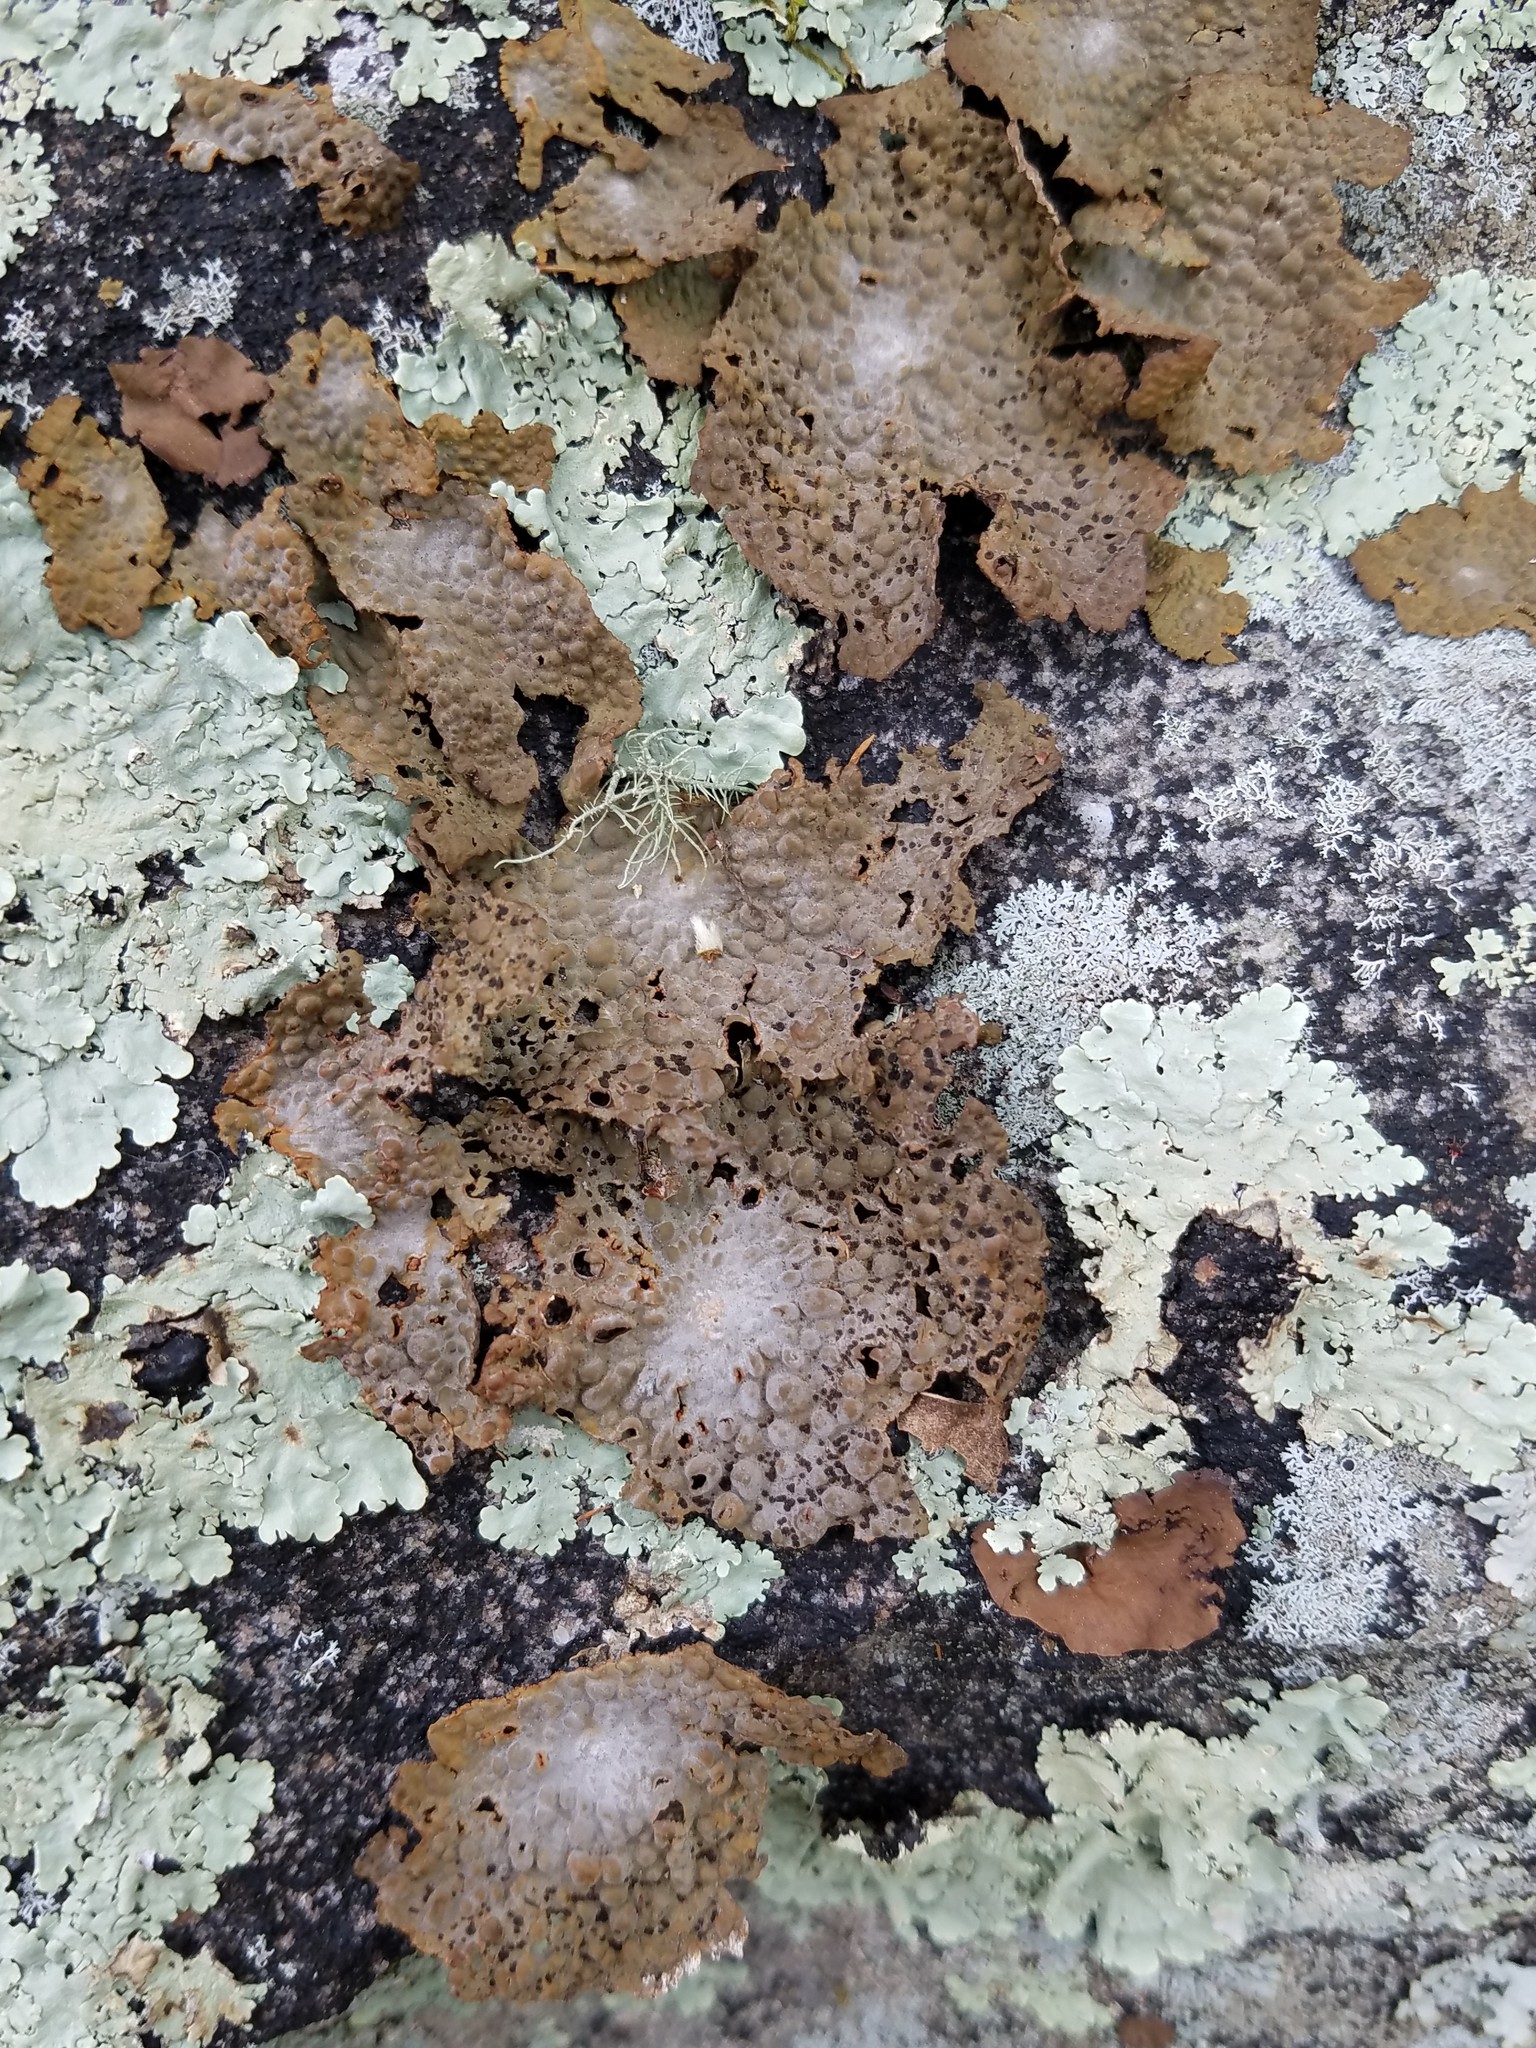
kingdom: Fungi
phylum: Ascomycota
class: Lecanoromycetes
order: Umbilicariales
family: Umbilicariaceae
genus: Lasallia
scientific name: Lasallia papulosa
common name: Common toadskin lichen
